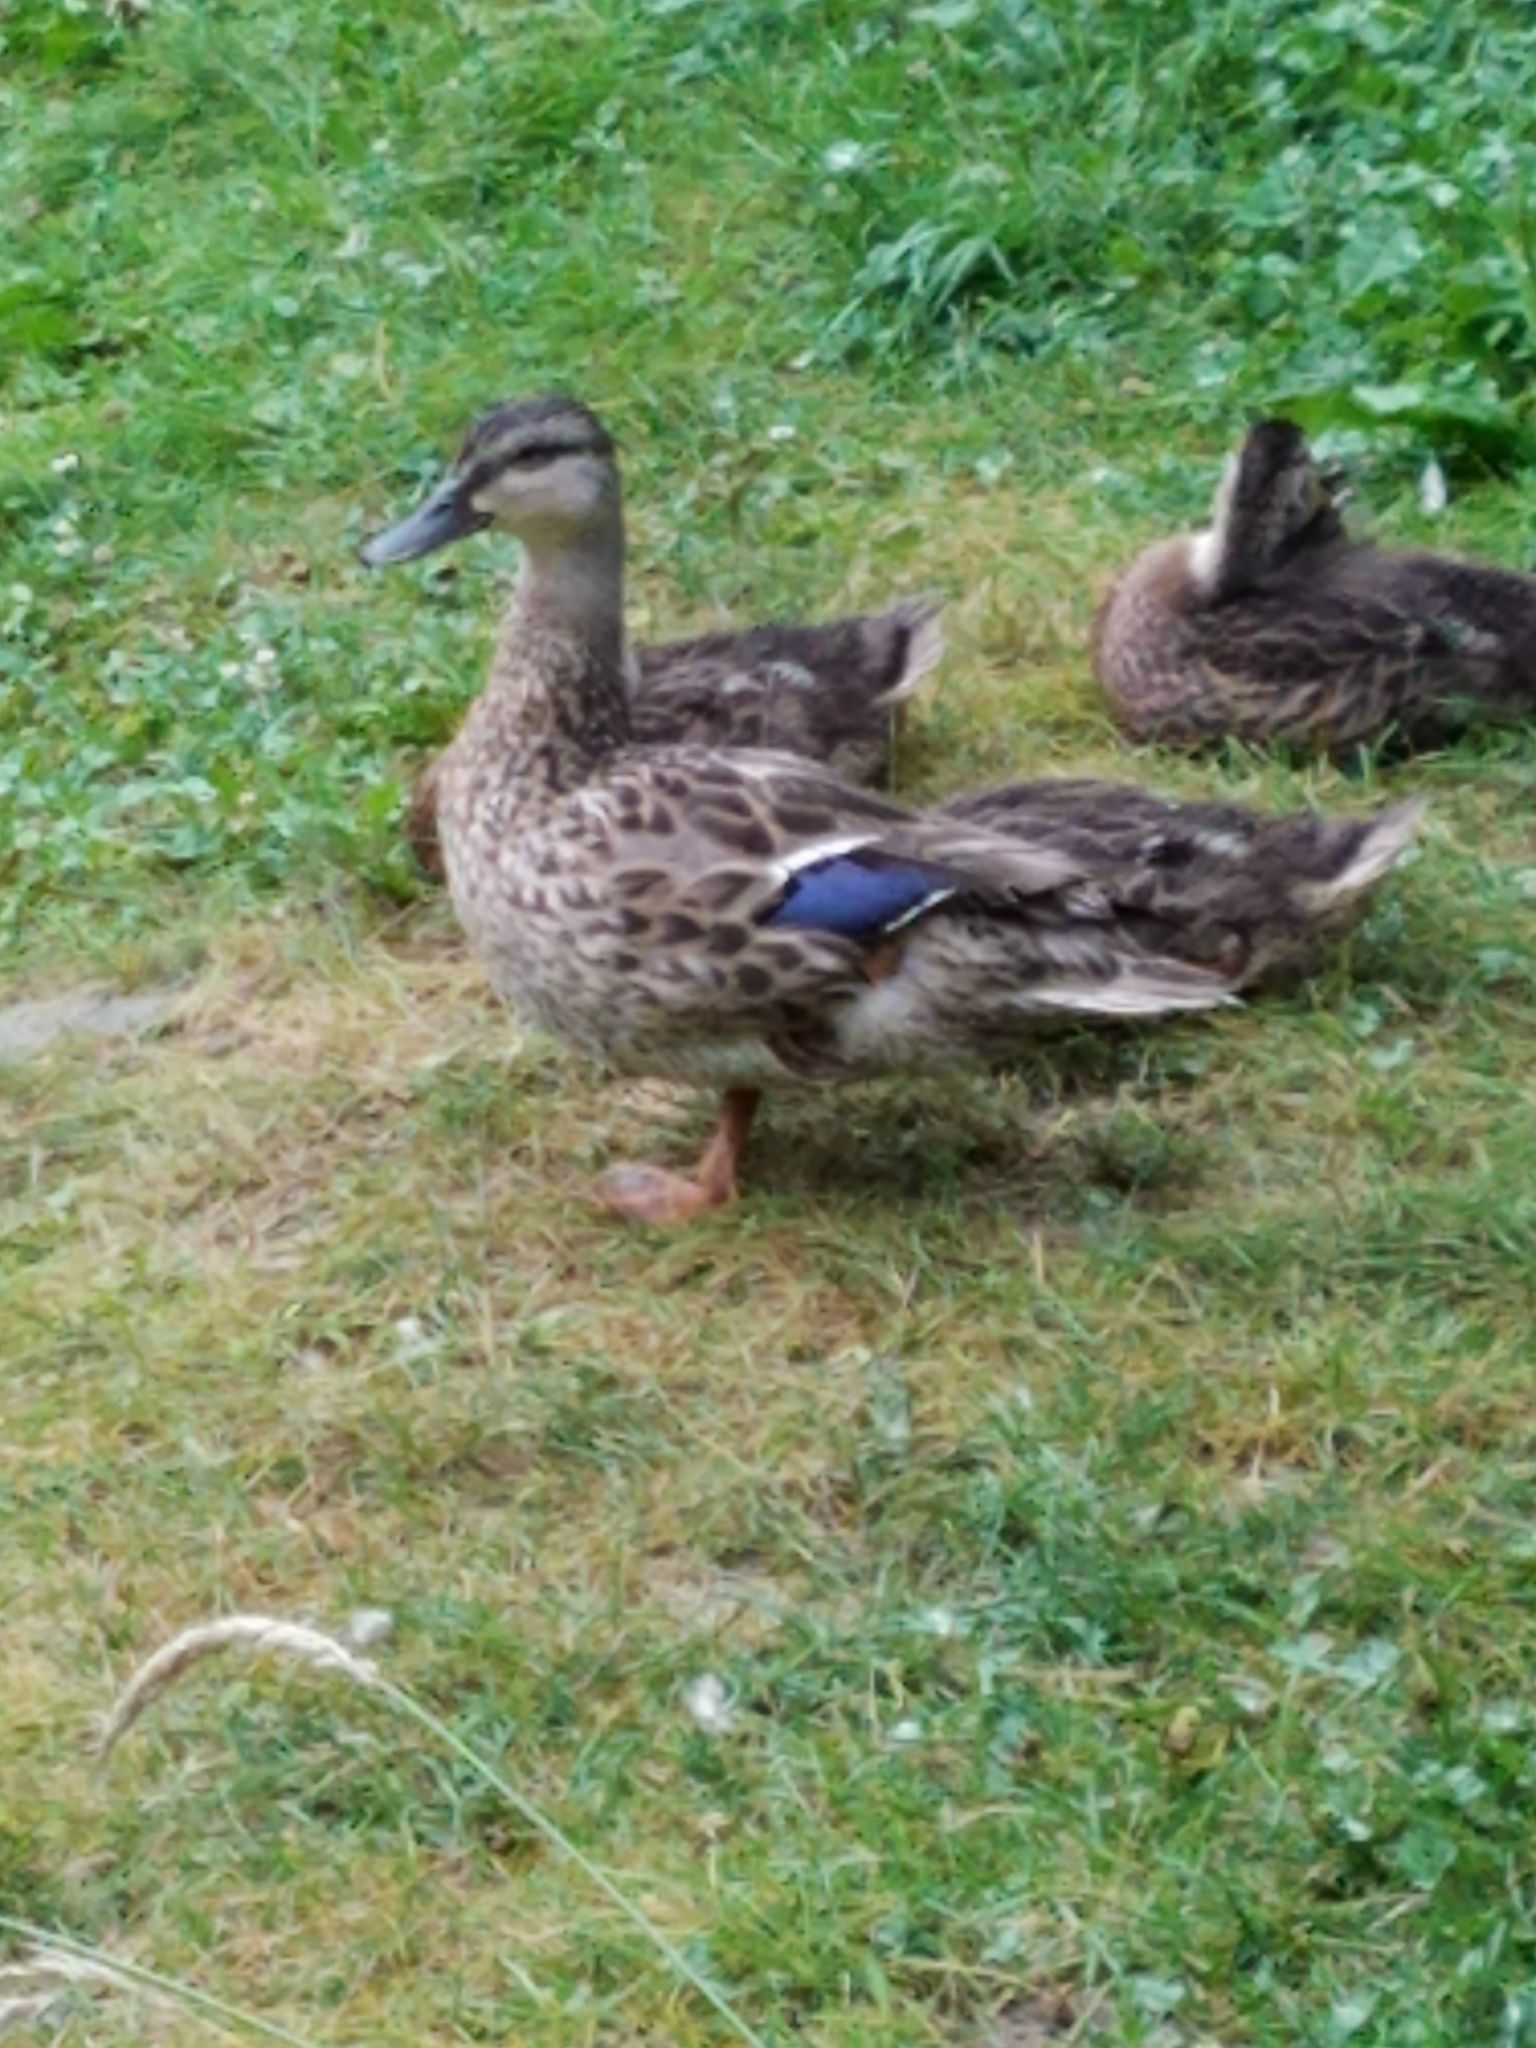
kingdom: Animalia
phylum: Chordata
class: Aves
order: Anseriformes
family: Anatidae
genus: Anas
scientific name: Anas platyrhynchos
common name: Mallard
